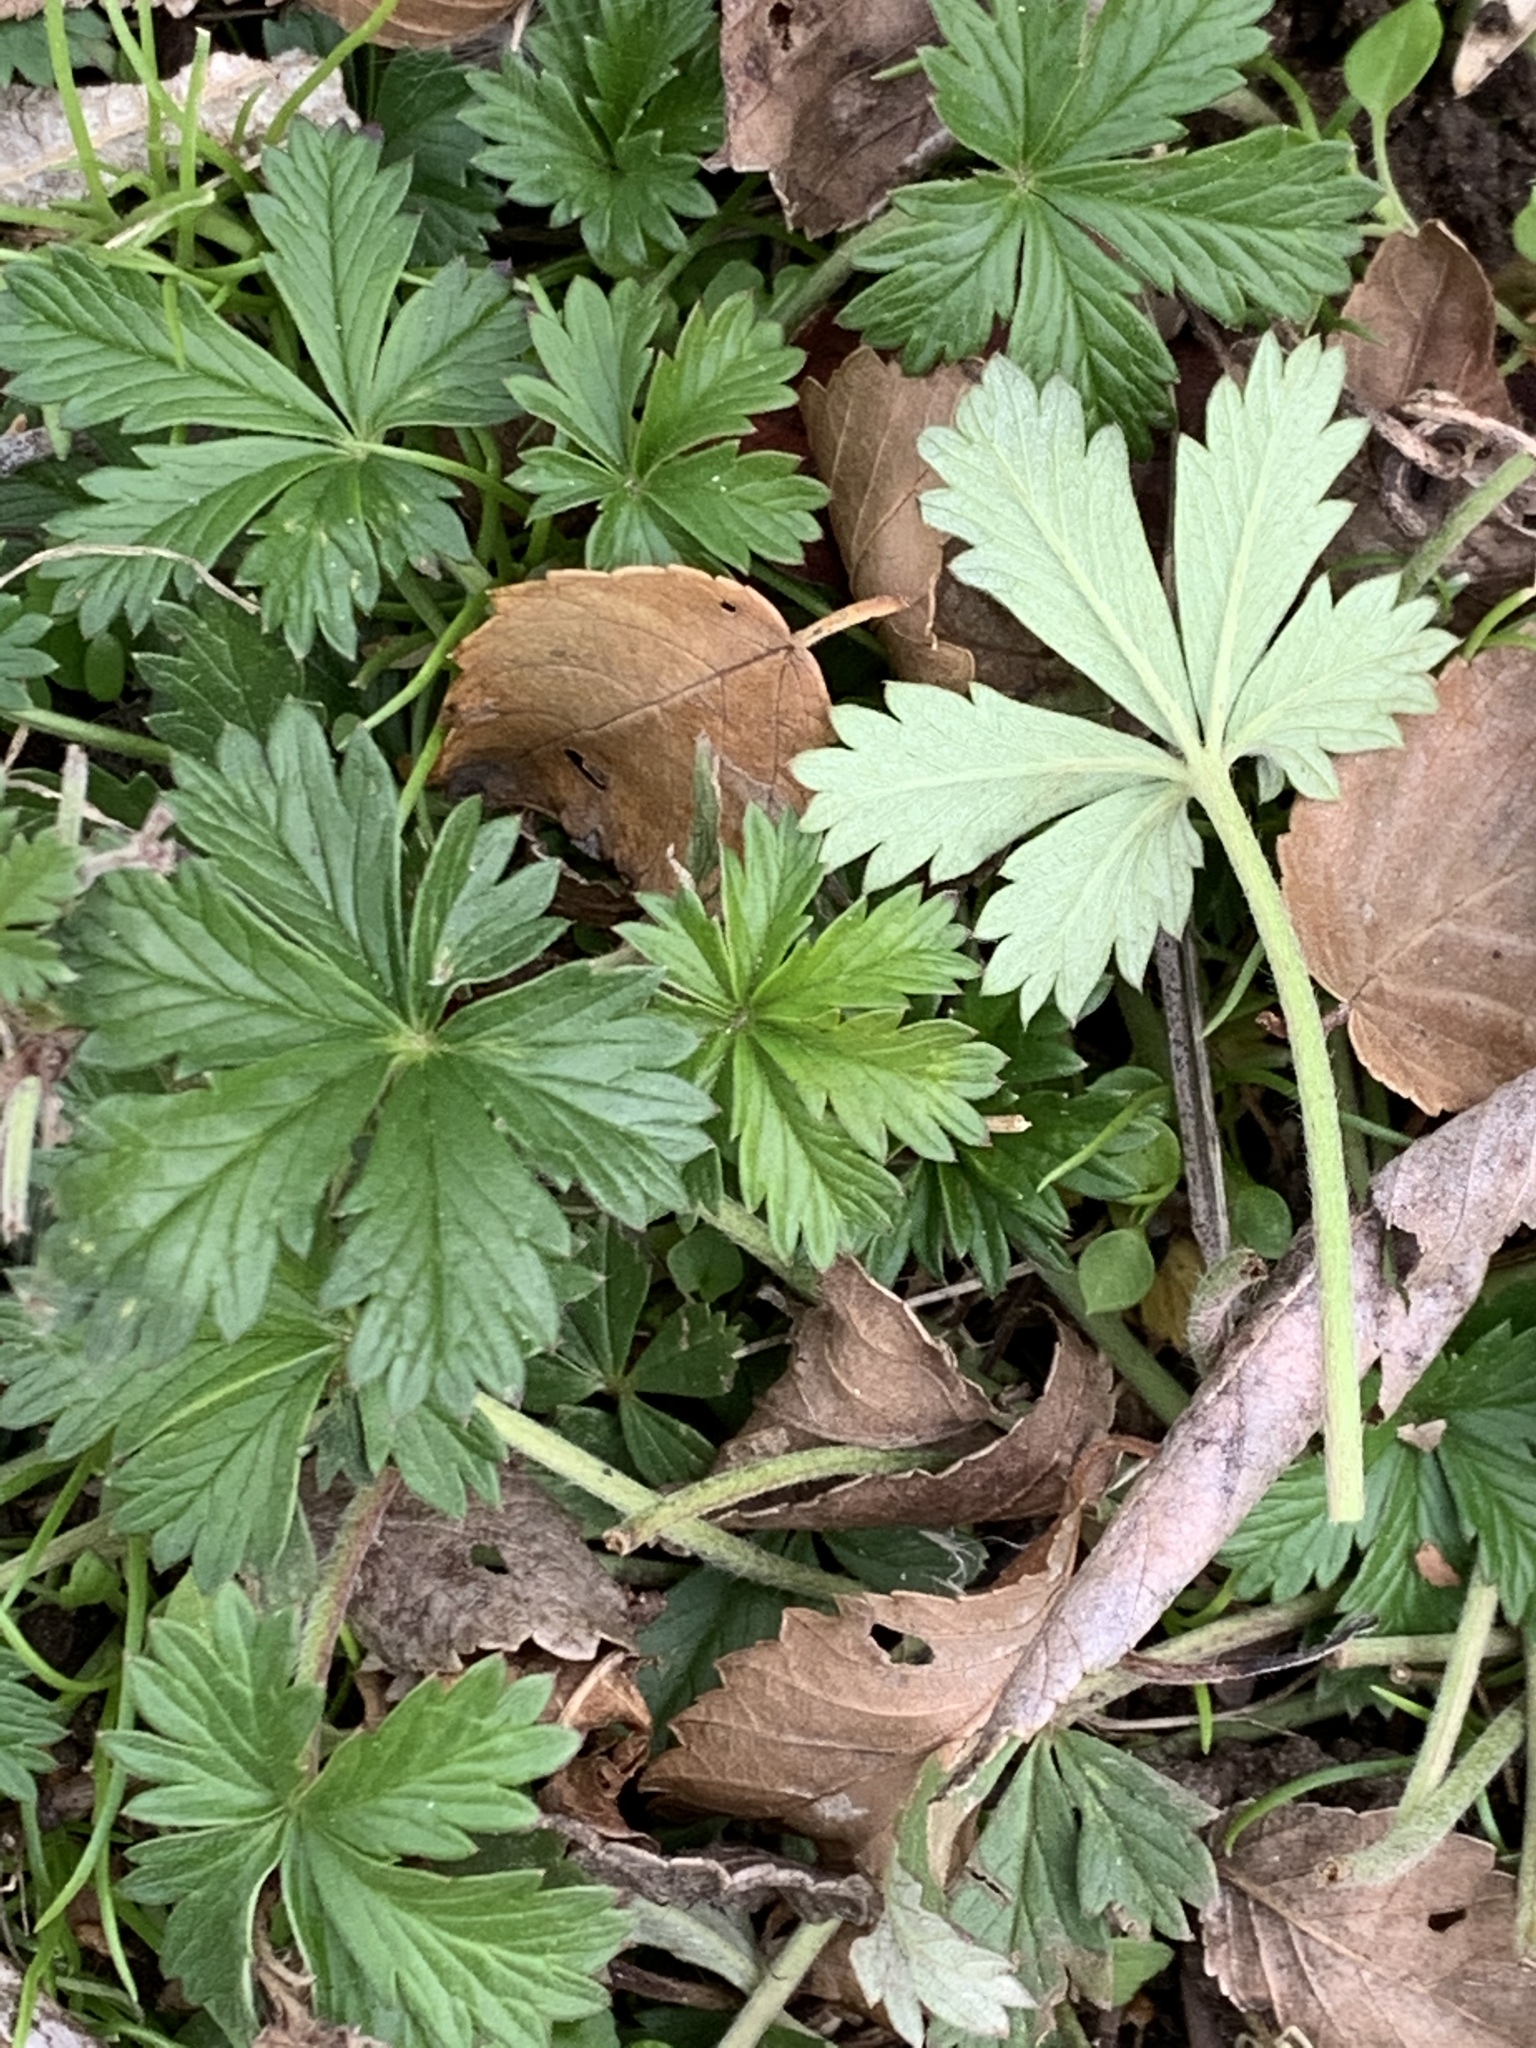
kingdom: Plantae
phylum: Tracheophyta
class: Magnoliopsida
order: Rosales
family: Rosaceae
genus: Potentilla
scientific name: Potentilla argentea
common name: Hoary cinquefoil
